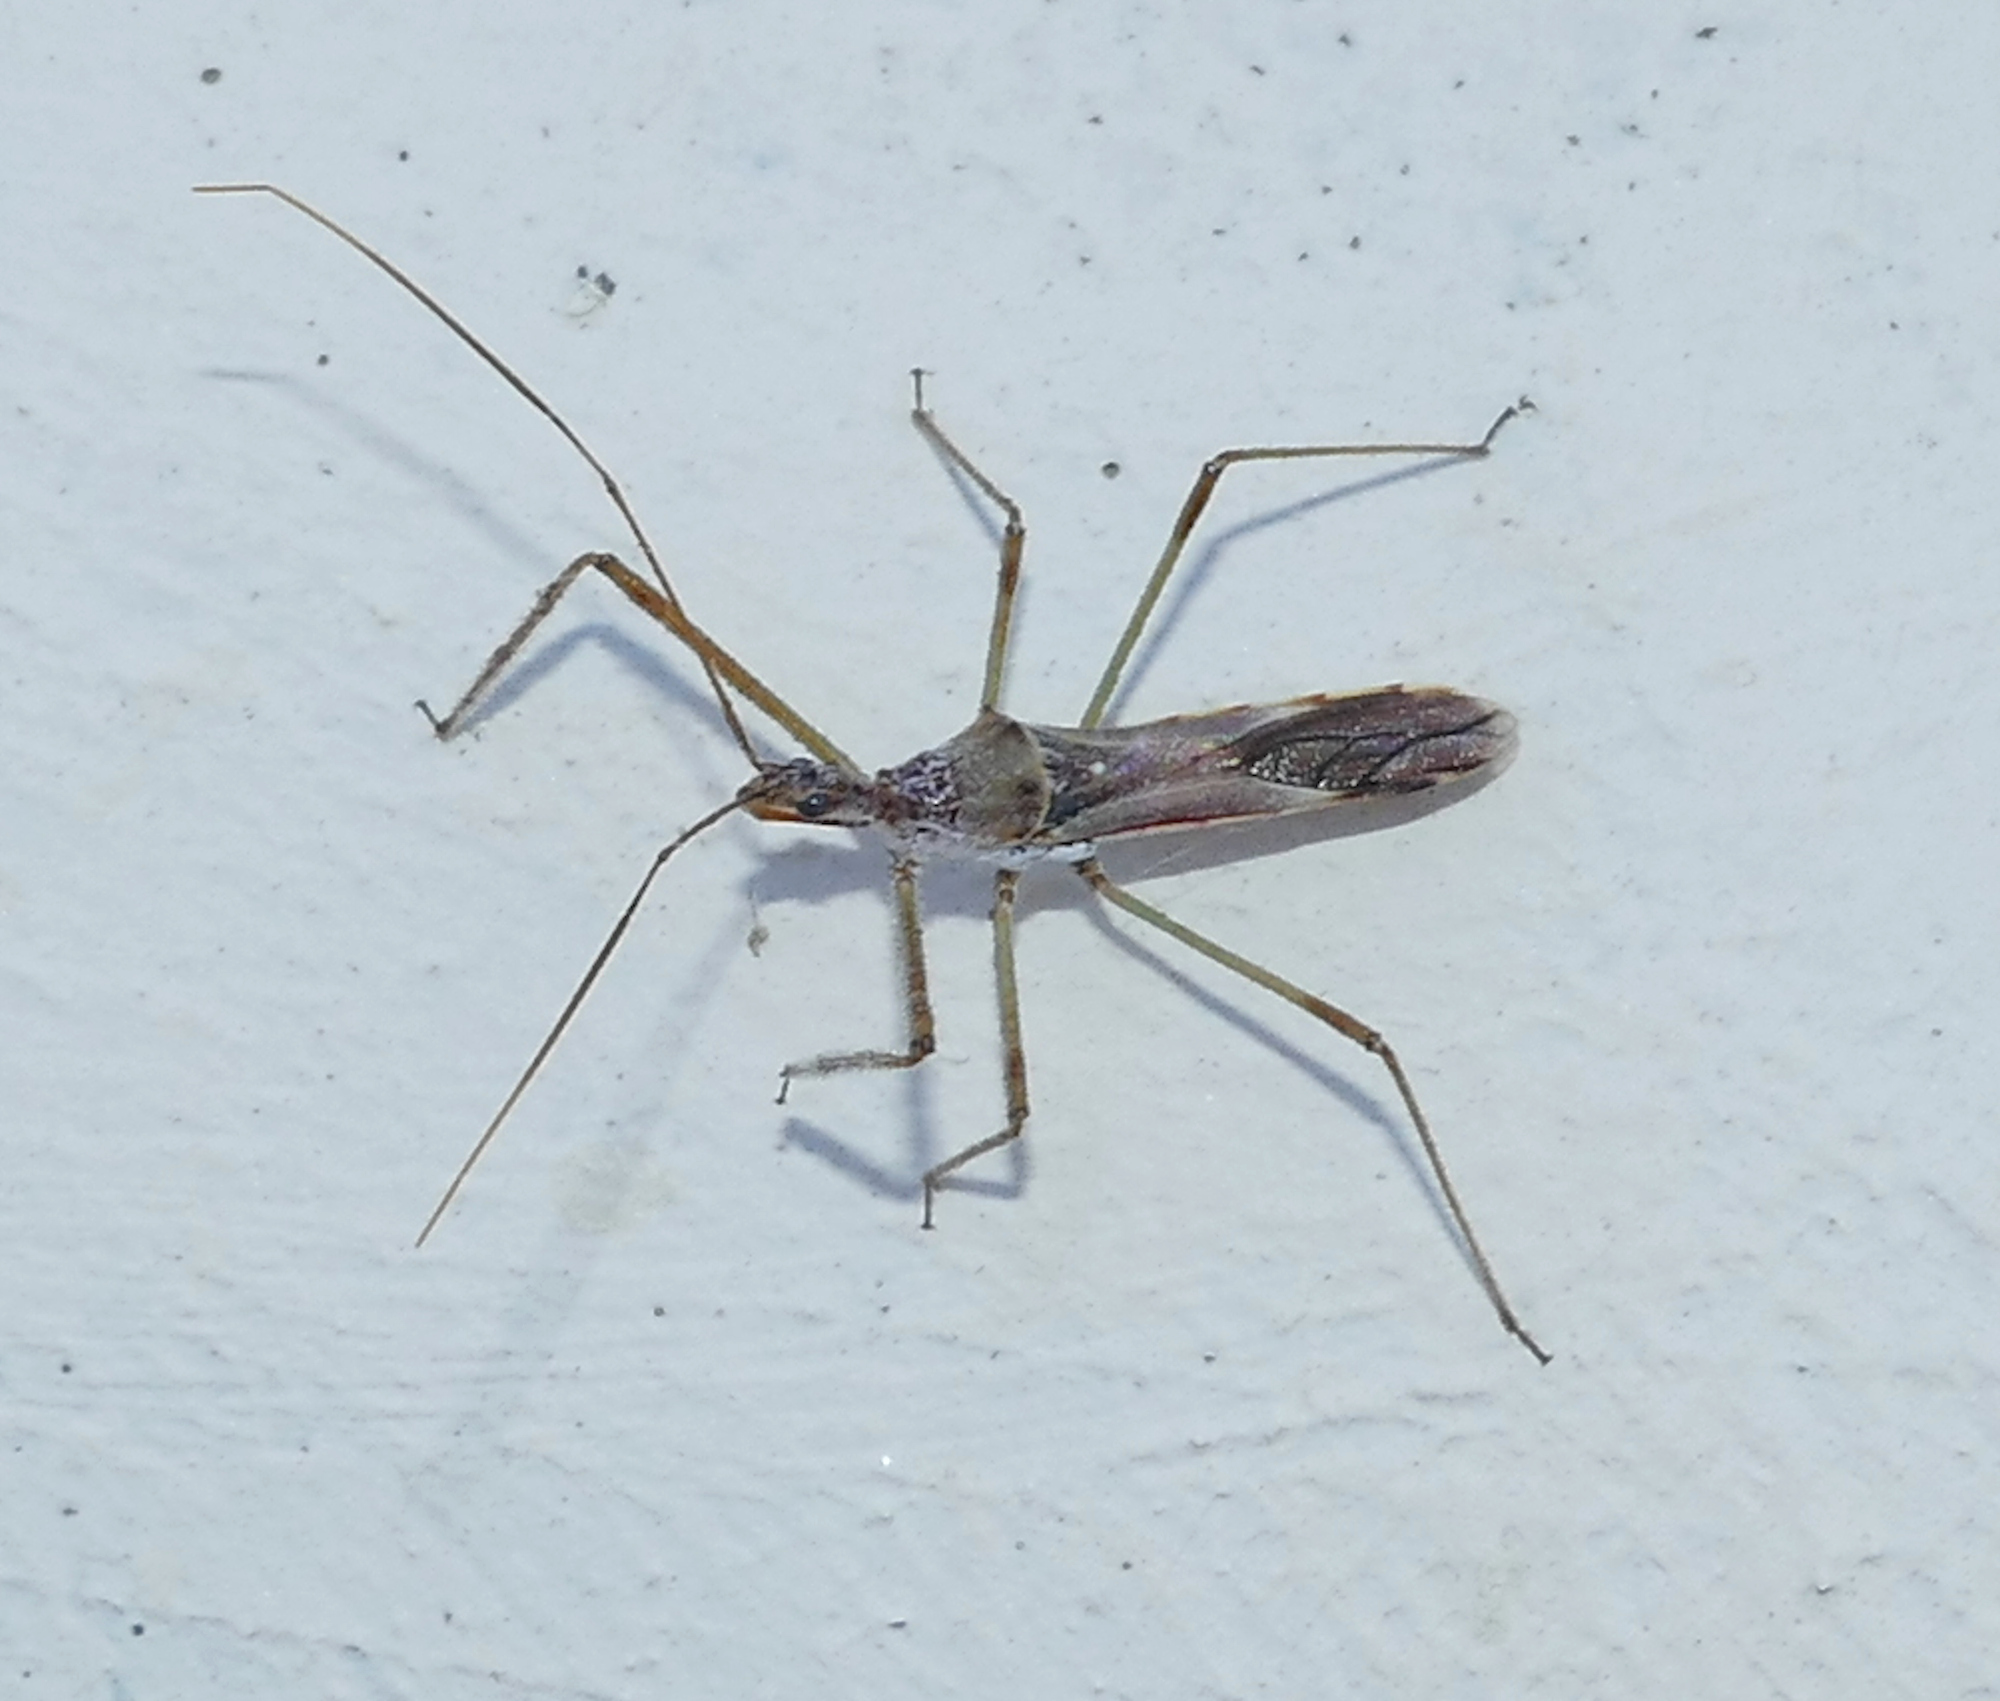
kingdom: Animalia
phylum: Arthropoda
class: Insecta
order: Hemiptera
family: Reduviidae
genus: Zelus
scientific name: Zelus tetracanthus
